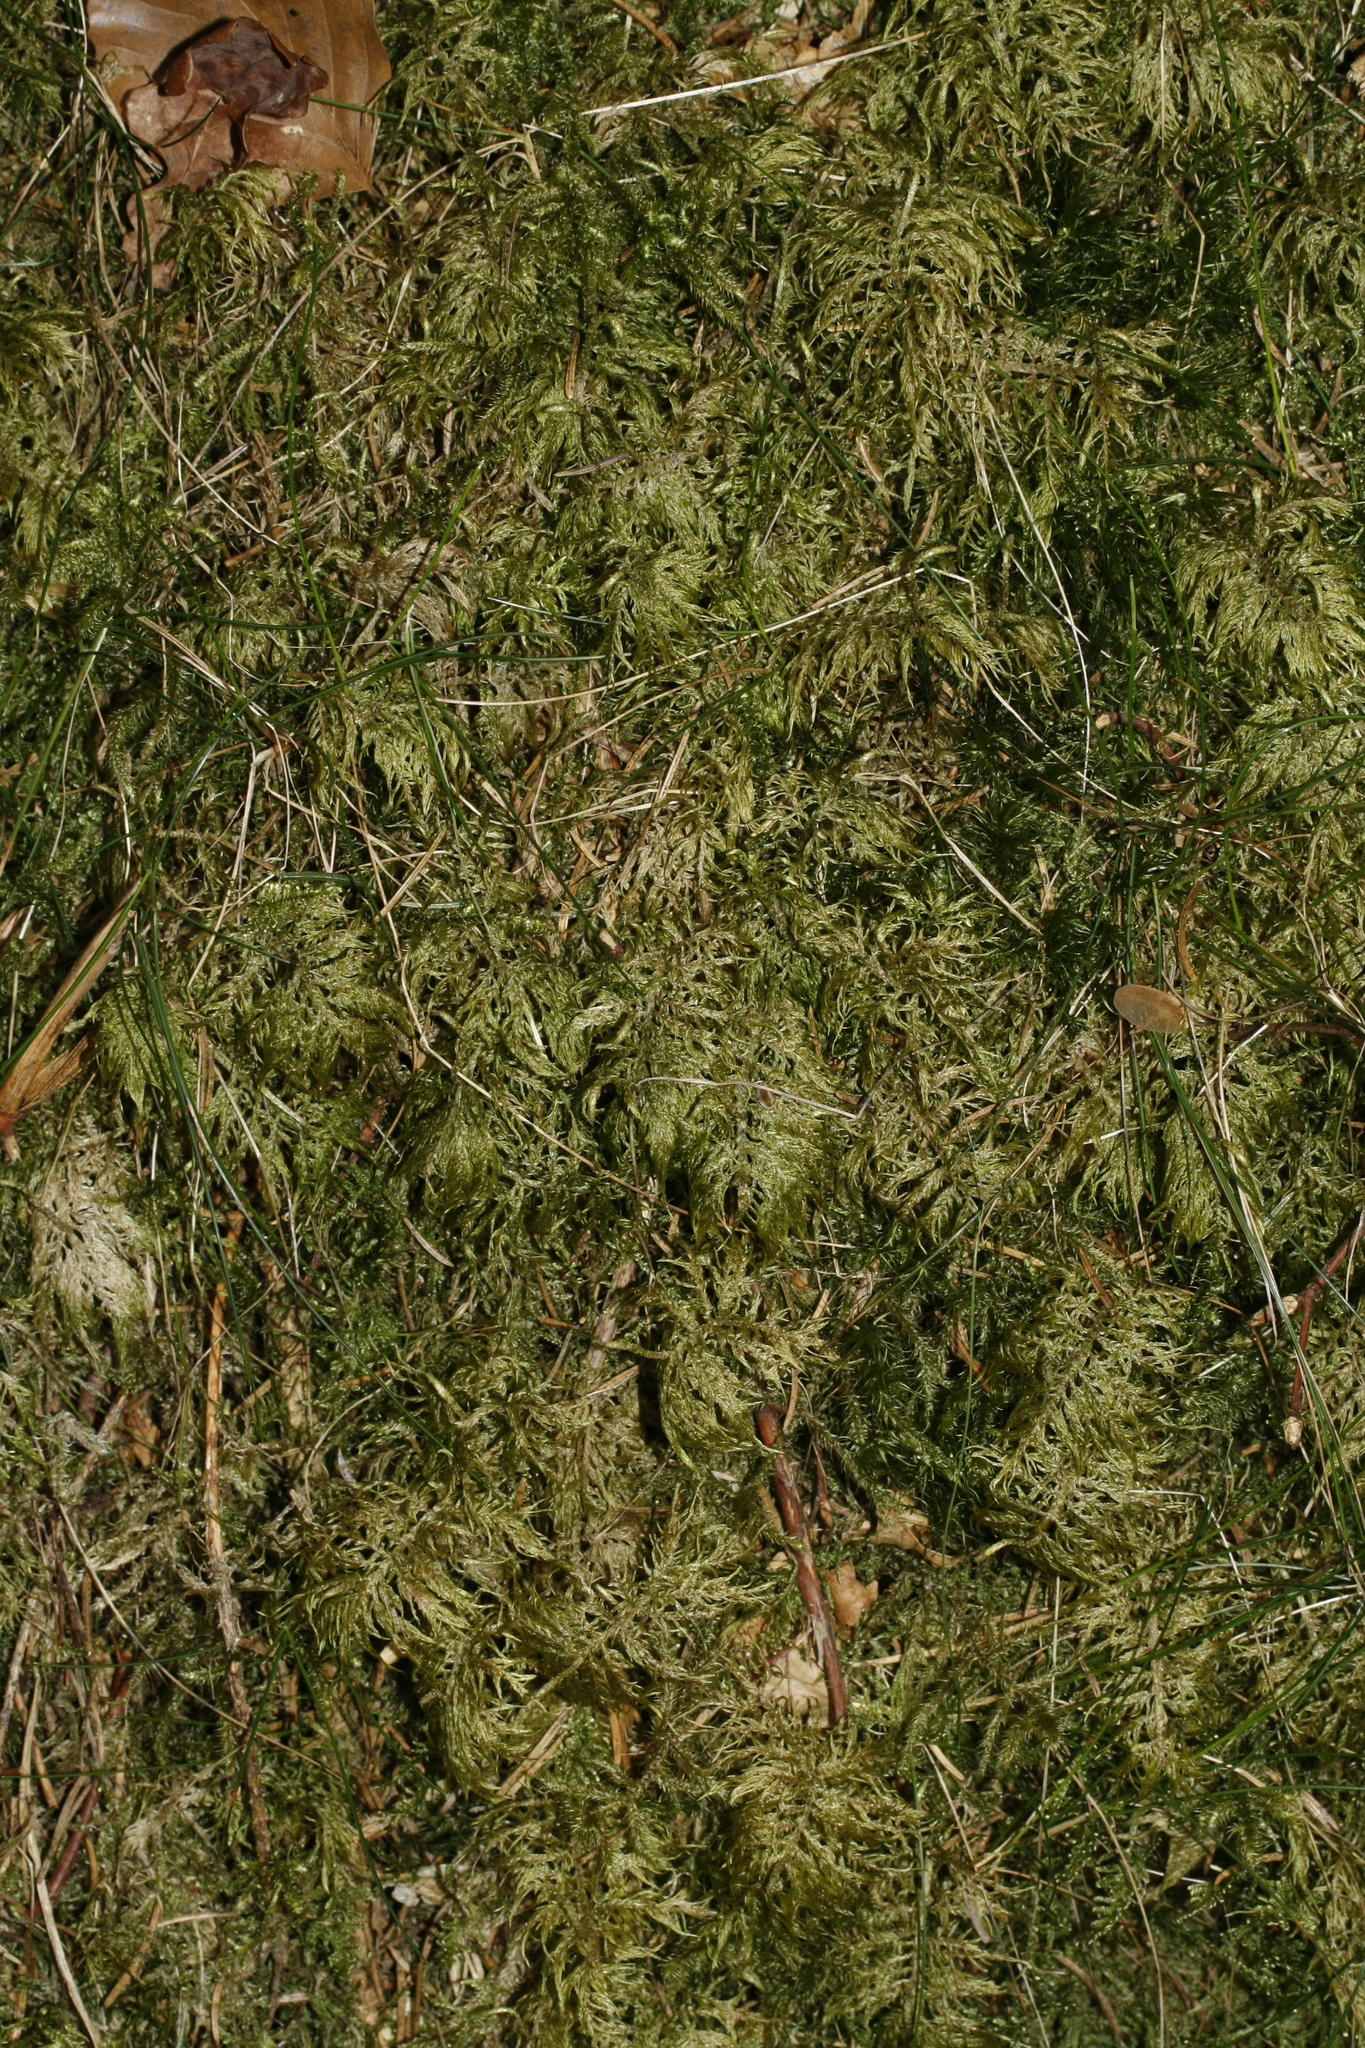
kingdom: Plantae
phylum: Bryophyta
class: Bryopsida
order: Hypnales
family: Hylocomiaceae
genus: Hylocomium
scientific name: Hylocomium splendens
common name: Stairstep moss
